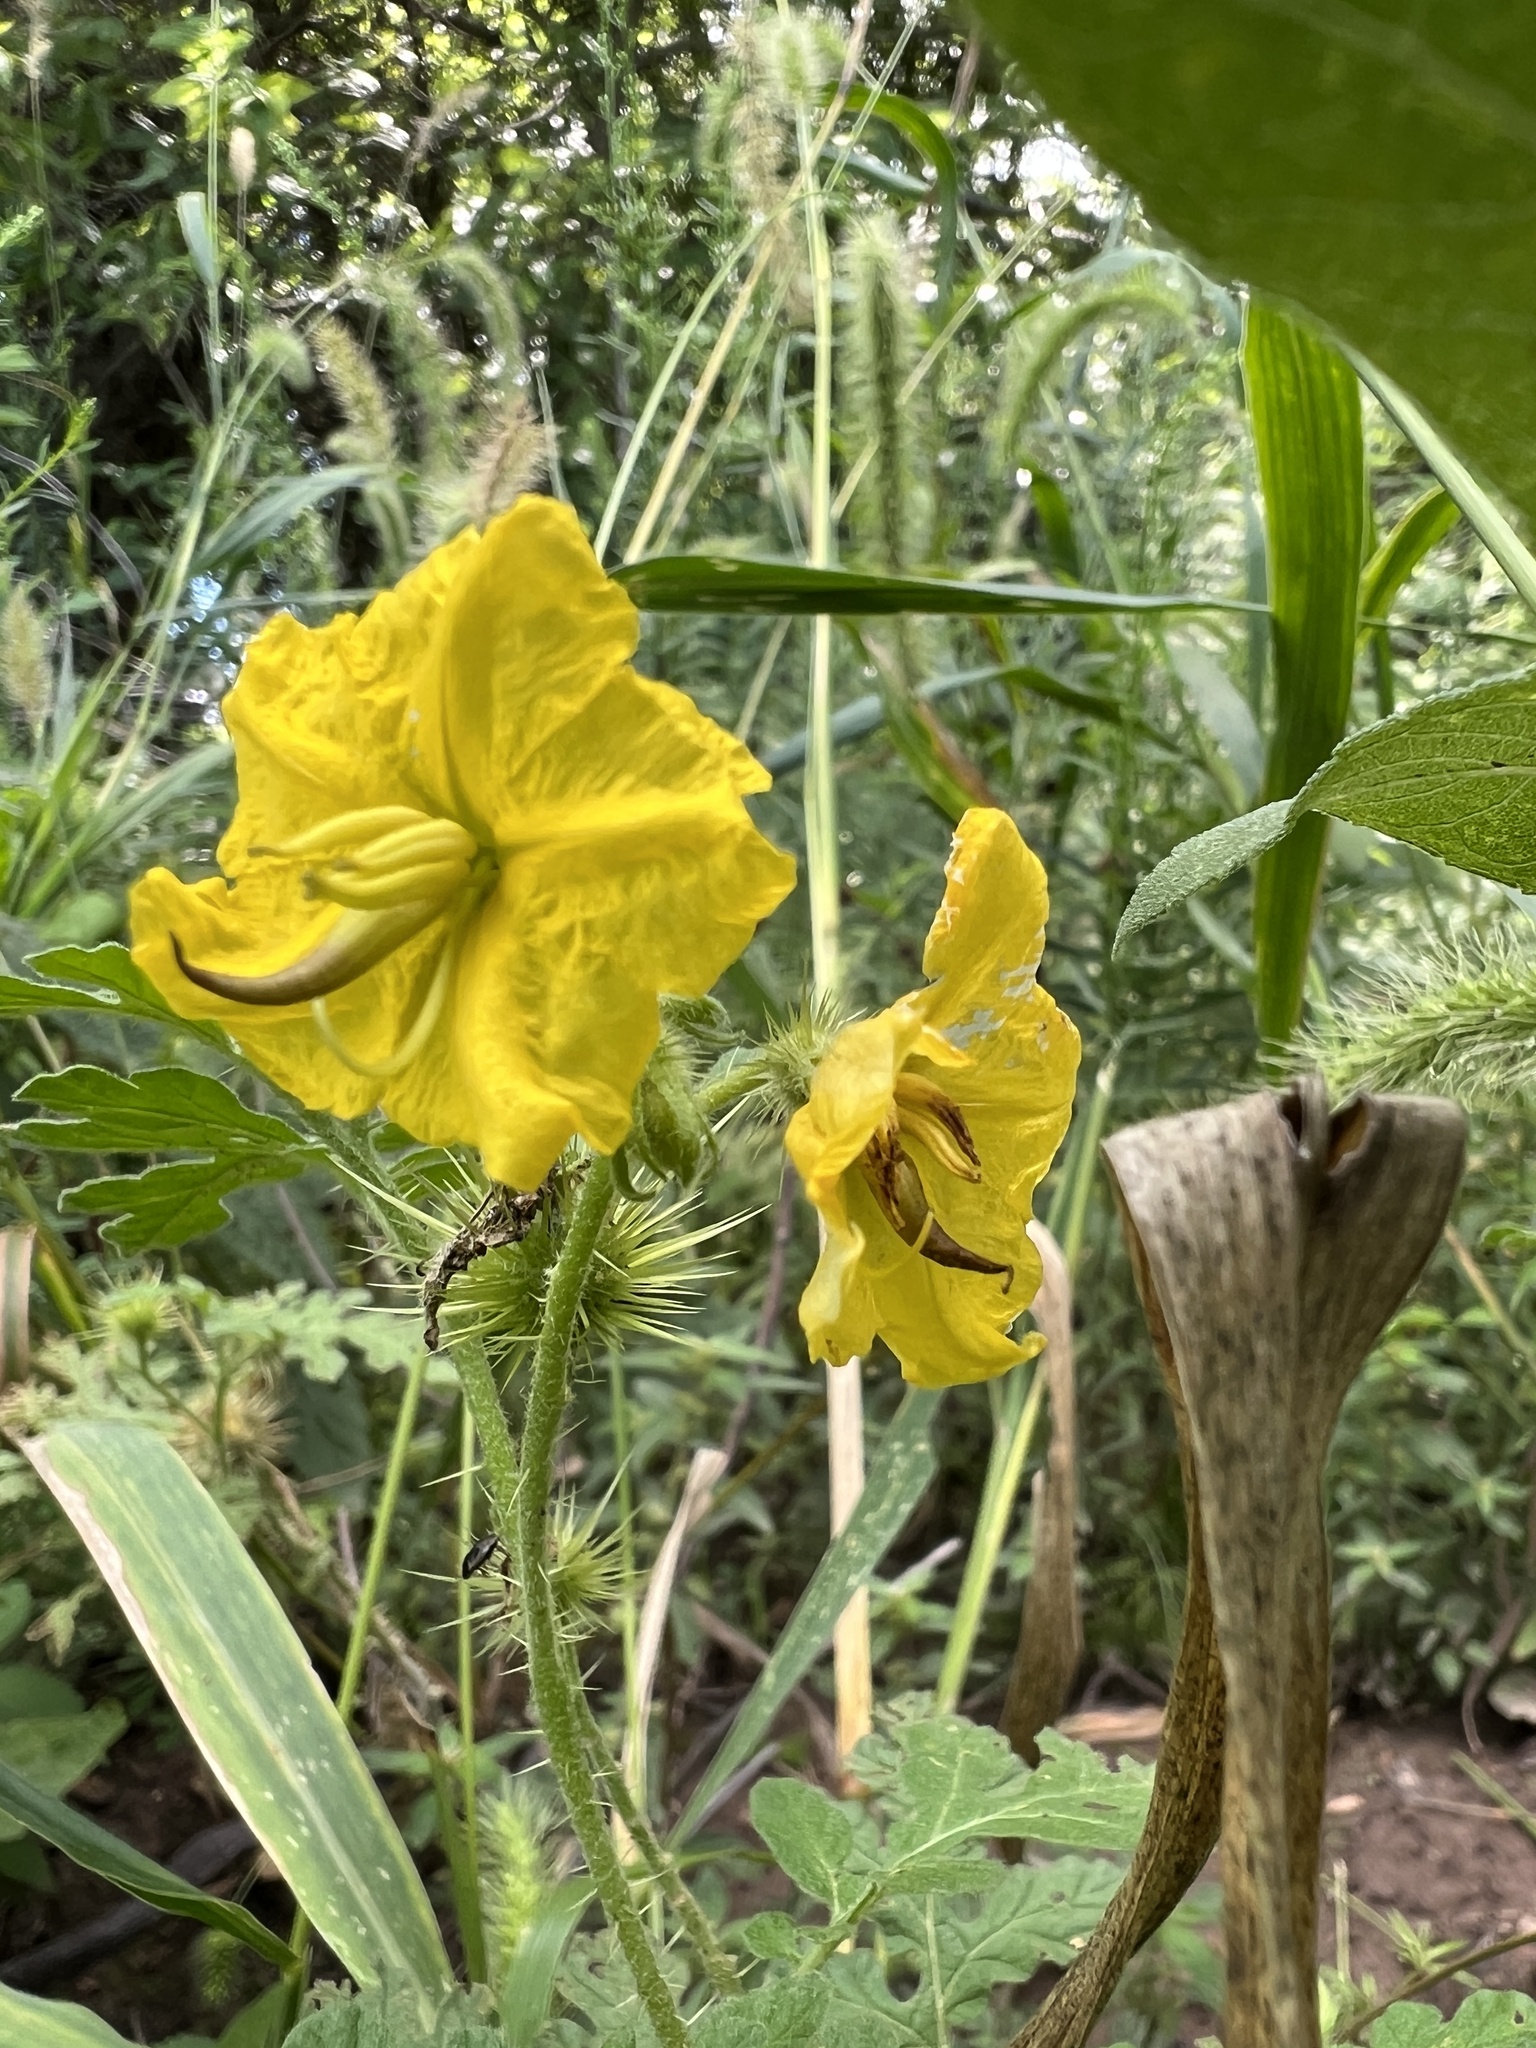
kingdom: Plantae
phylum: Tracheophyta
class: Magnoliopsida
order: Solanales
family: Solanaceae
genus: Solanum
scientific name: Solanum angustifolium
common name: Buffalobur nightshade
